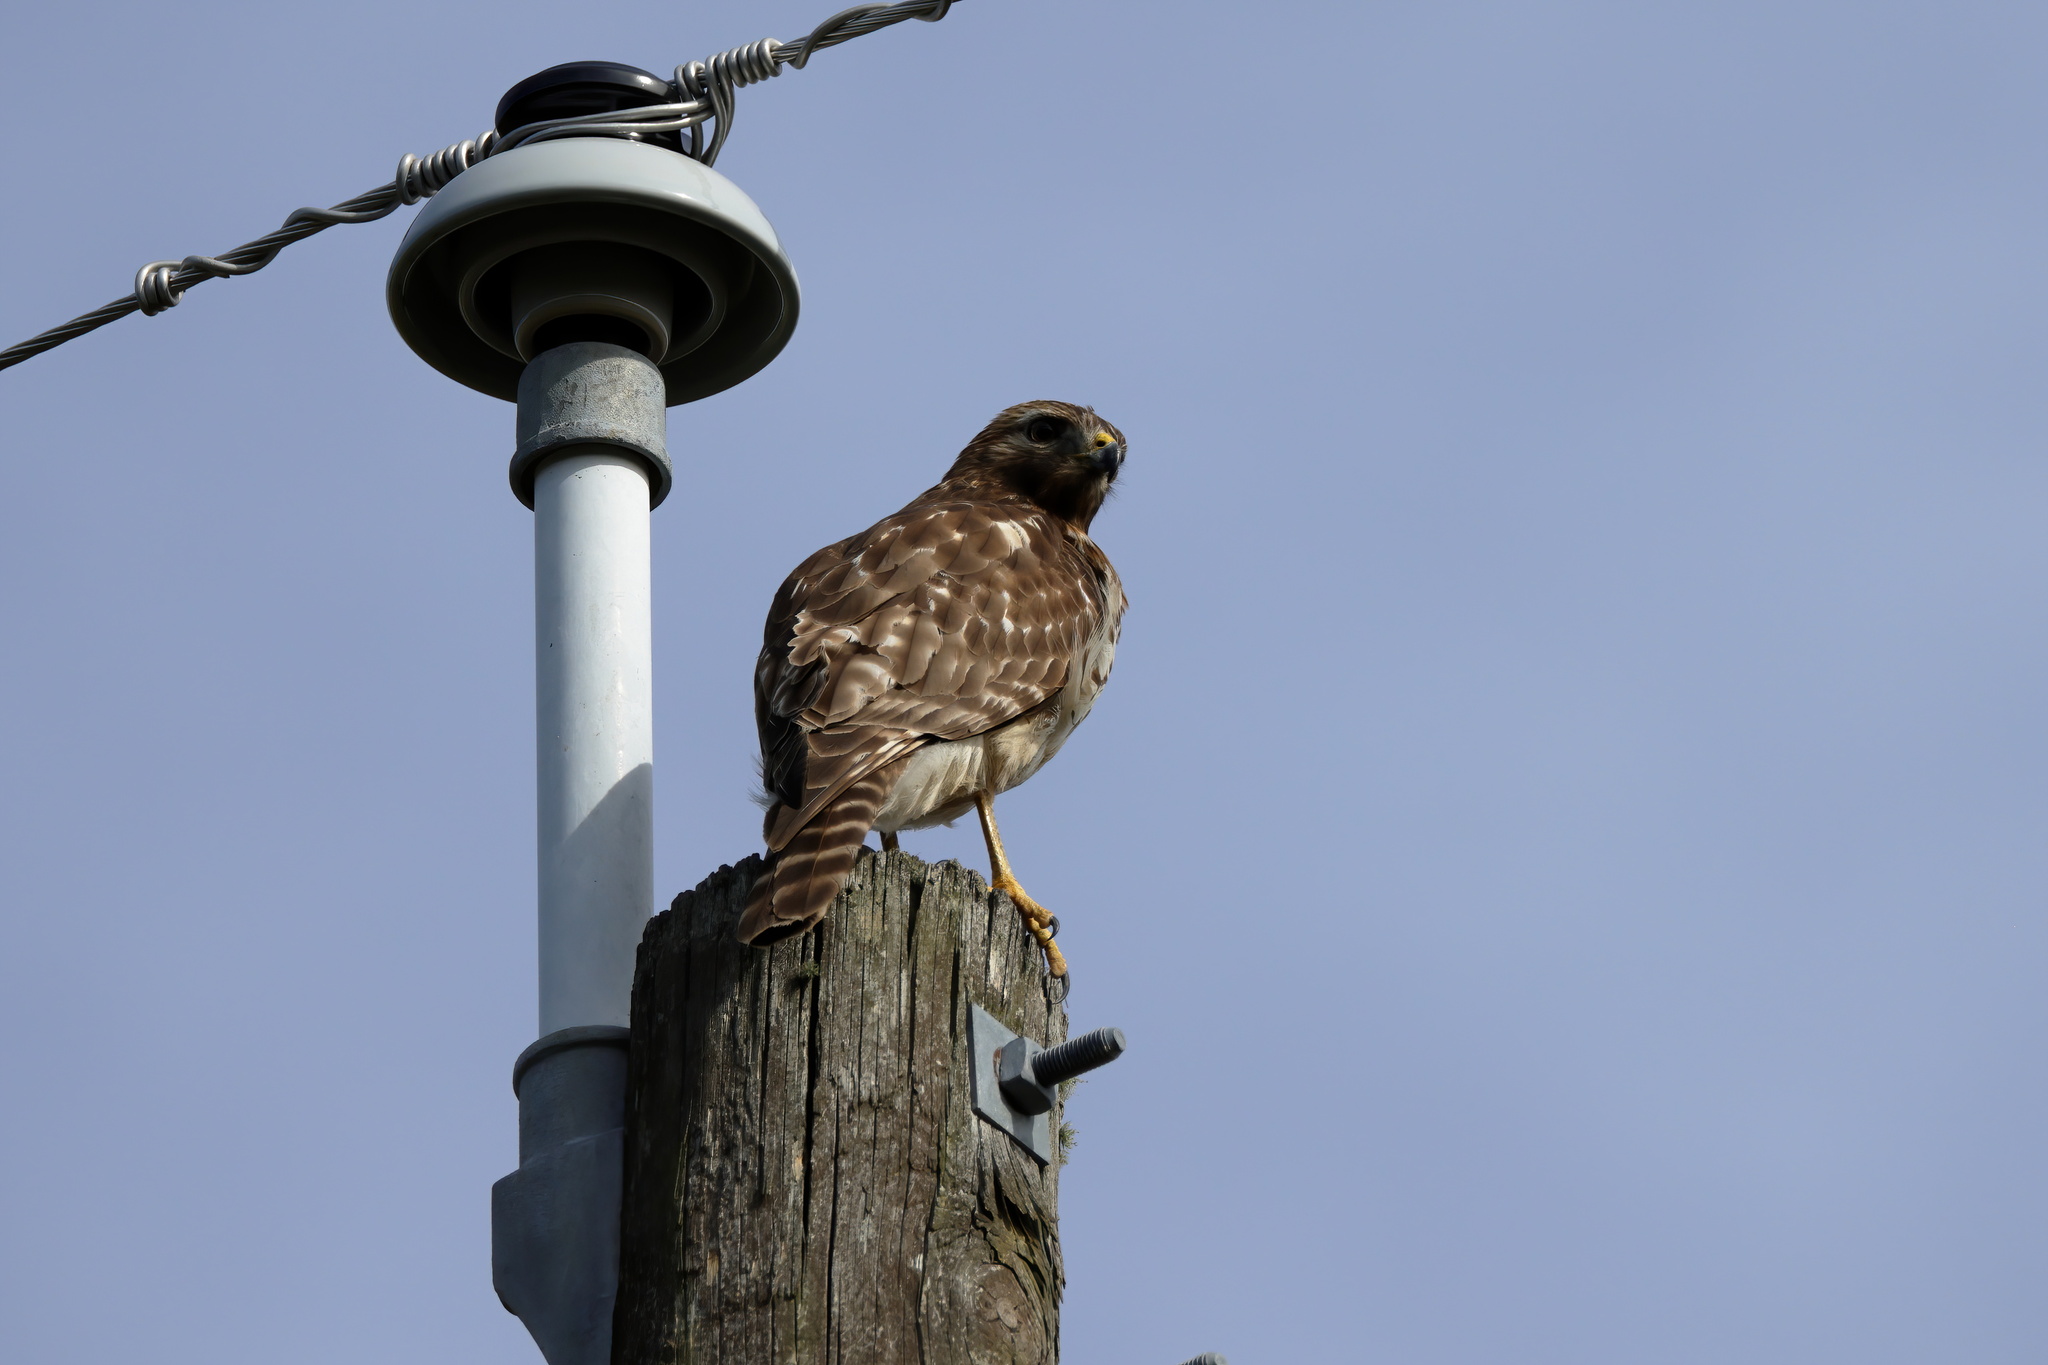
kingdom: Animalia
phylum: Chordata
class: Aves
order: Accipitriformes
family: Accipitridae
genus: Buteo
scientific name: Buteo lineatus
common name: Red-shouldered hawk
